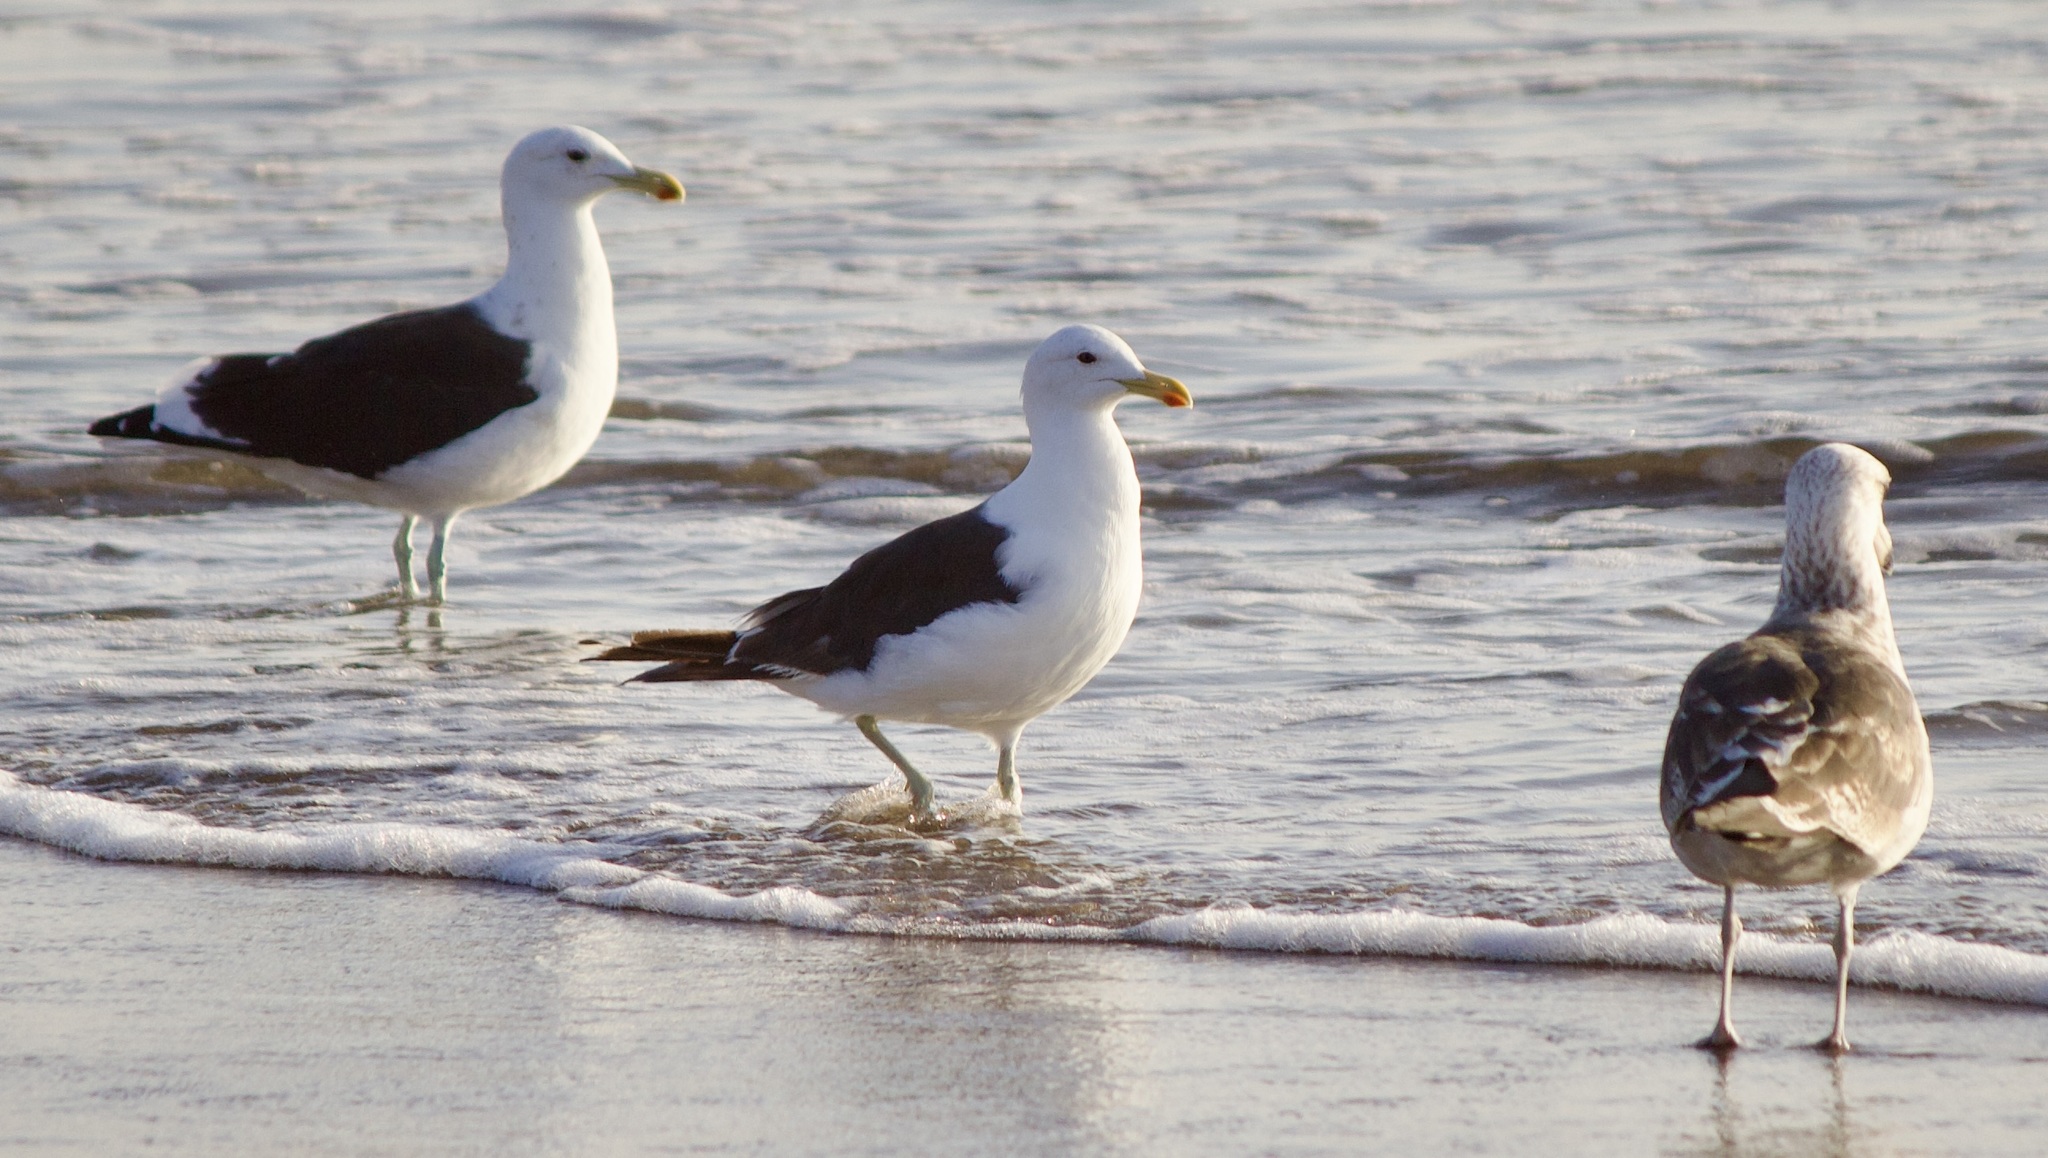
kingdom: Animalia
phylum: Chordata
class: Aves
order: Charadriiformes
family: Laridae
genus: Larus
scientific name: Larus dominicanus
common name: Kelp gull
